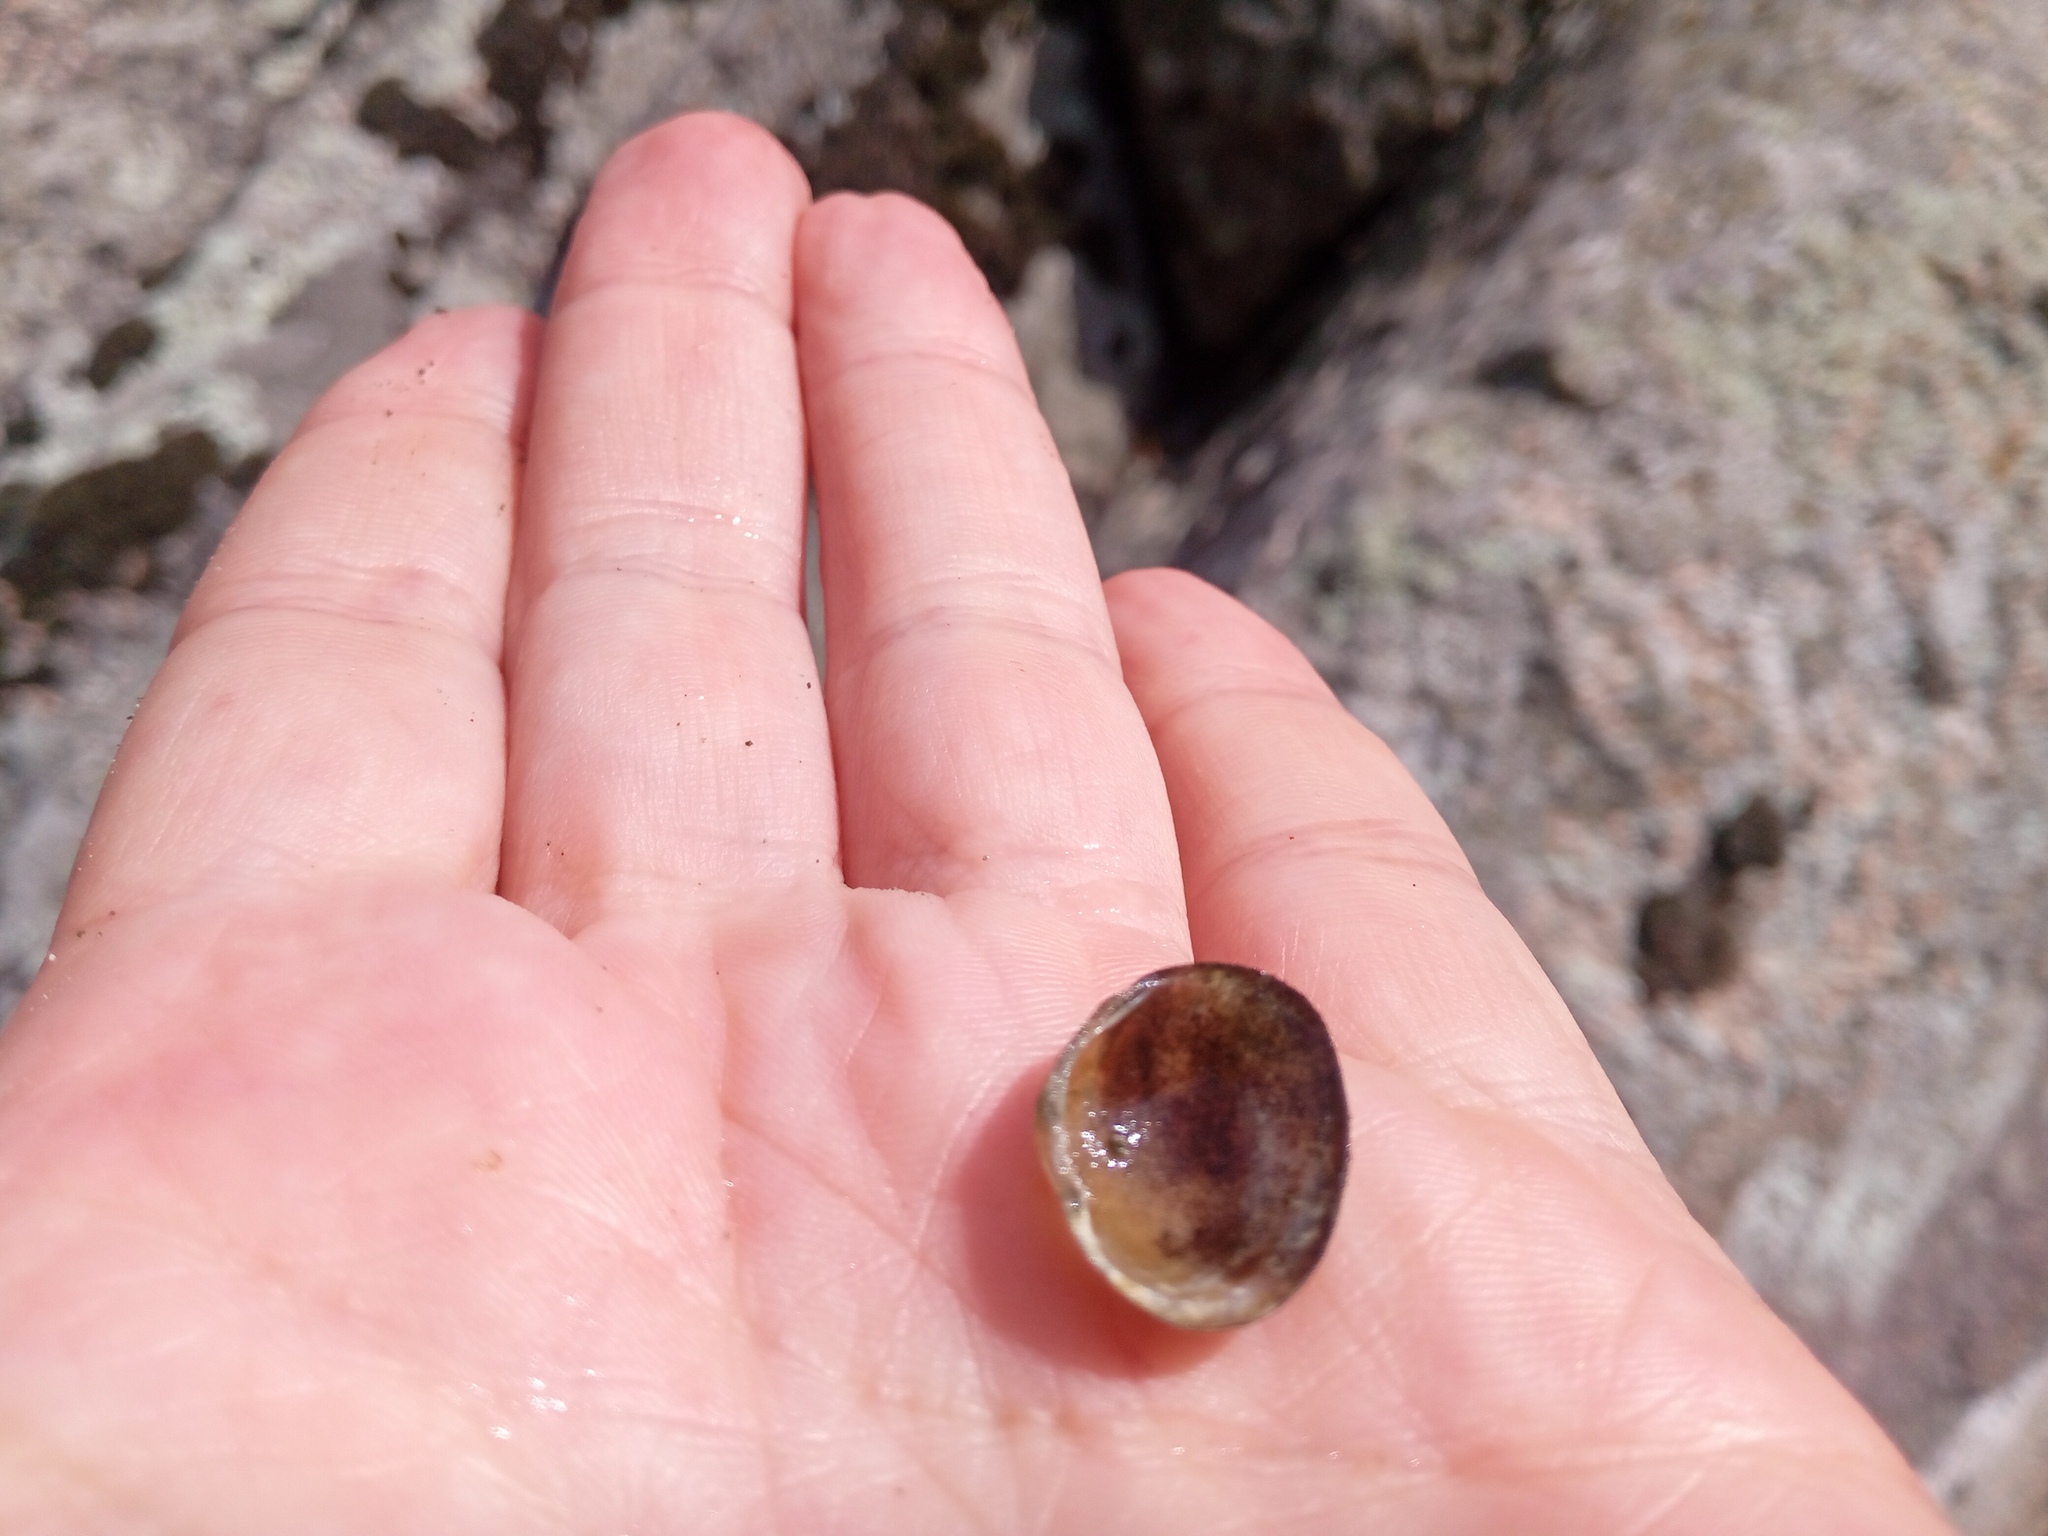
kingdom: Animalia
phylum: Mollusca
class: Bivalvia
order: Sphaeriida
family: Sphaeriidae
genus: Sphaerium
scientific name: Sphaerium rivicola
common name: Nut orb mussel
